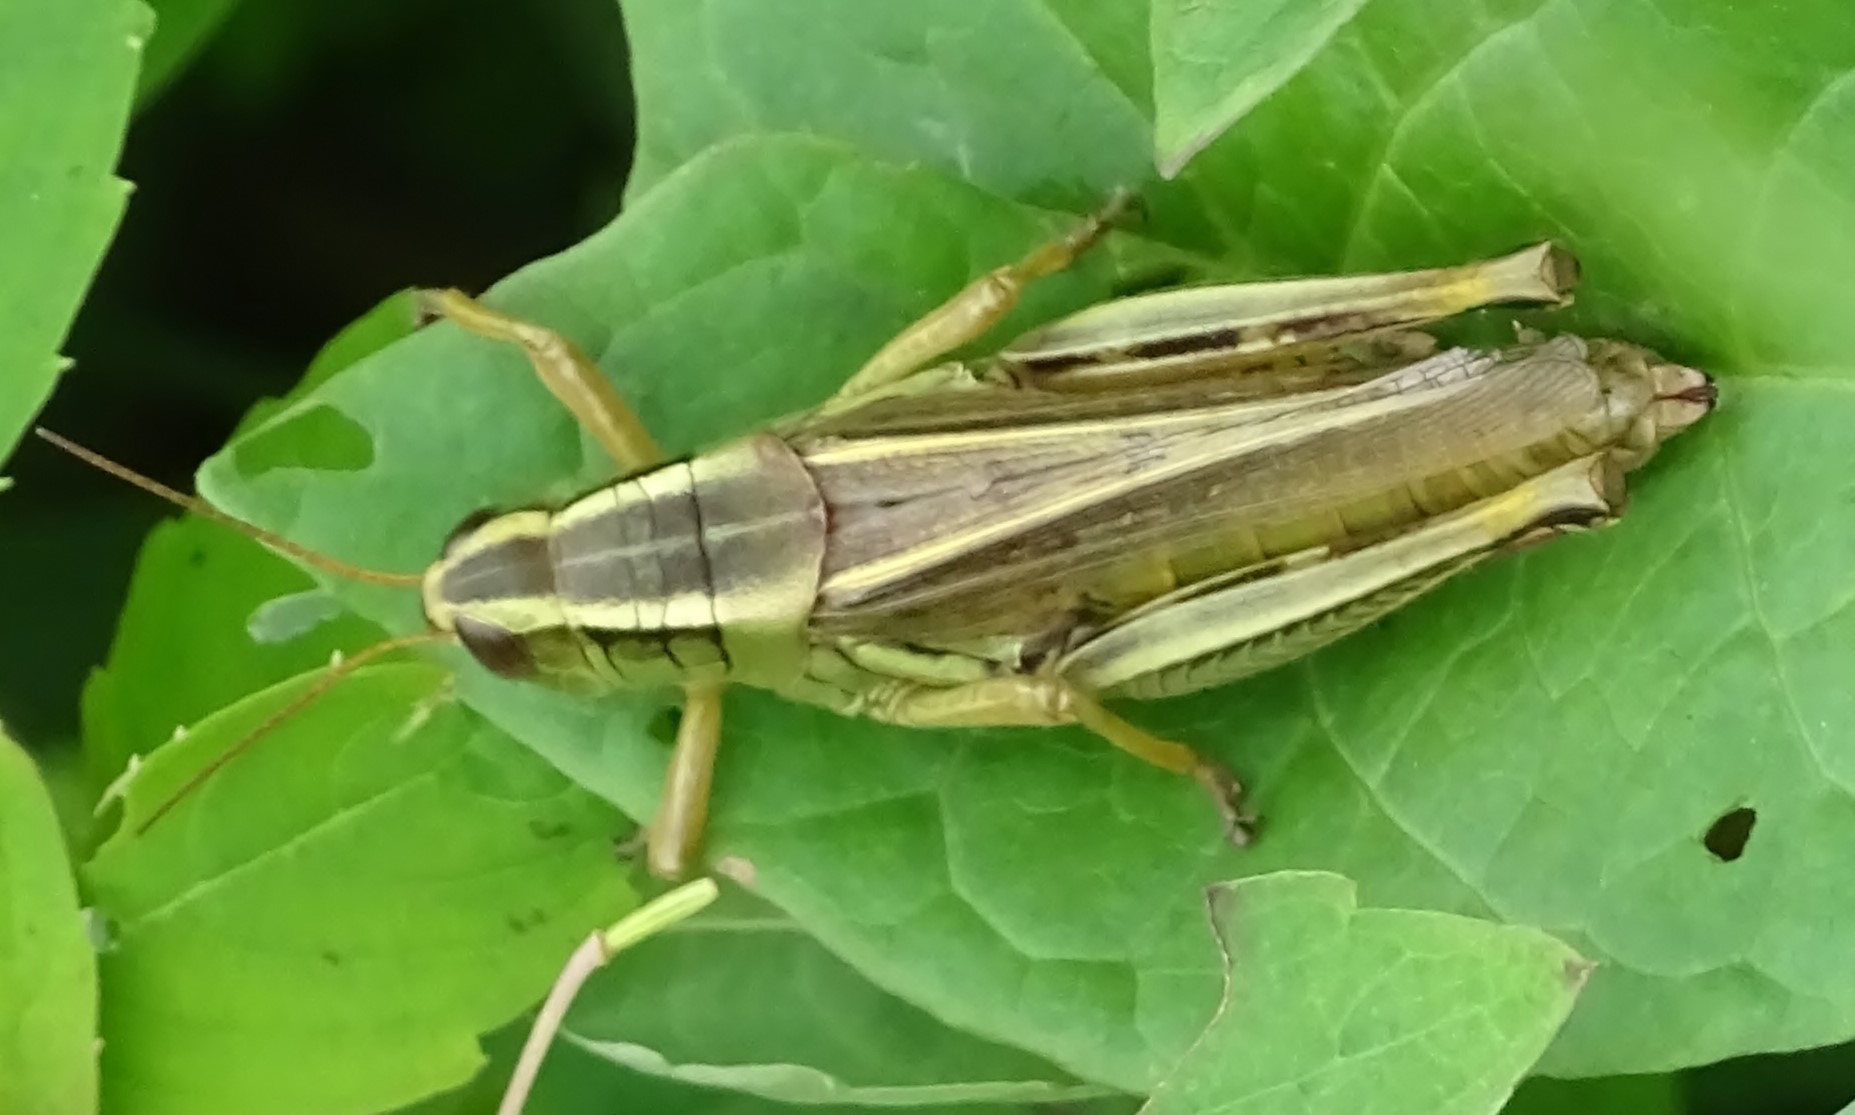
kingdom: Animalia
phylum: Arthropoda
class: Insecta
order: Orthoptera
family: Acrididae
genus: Melanoplus
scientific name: Melanoplus bivittatus
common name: Two-striped grasshopper
